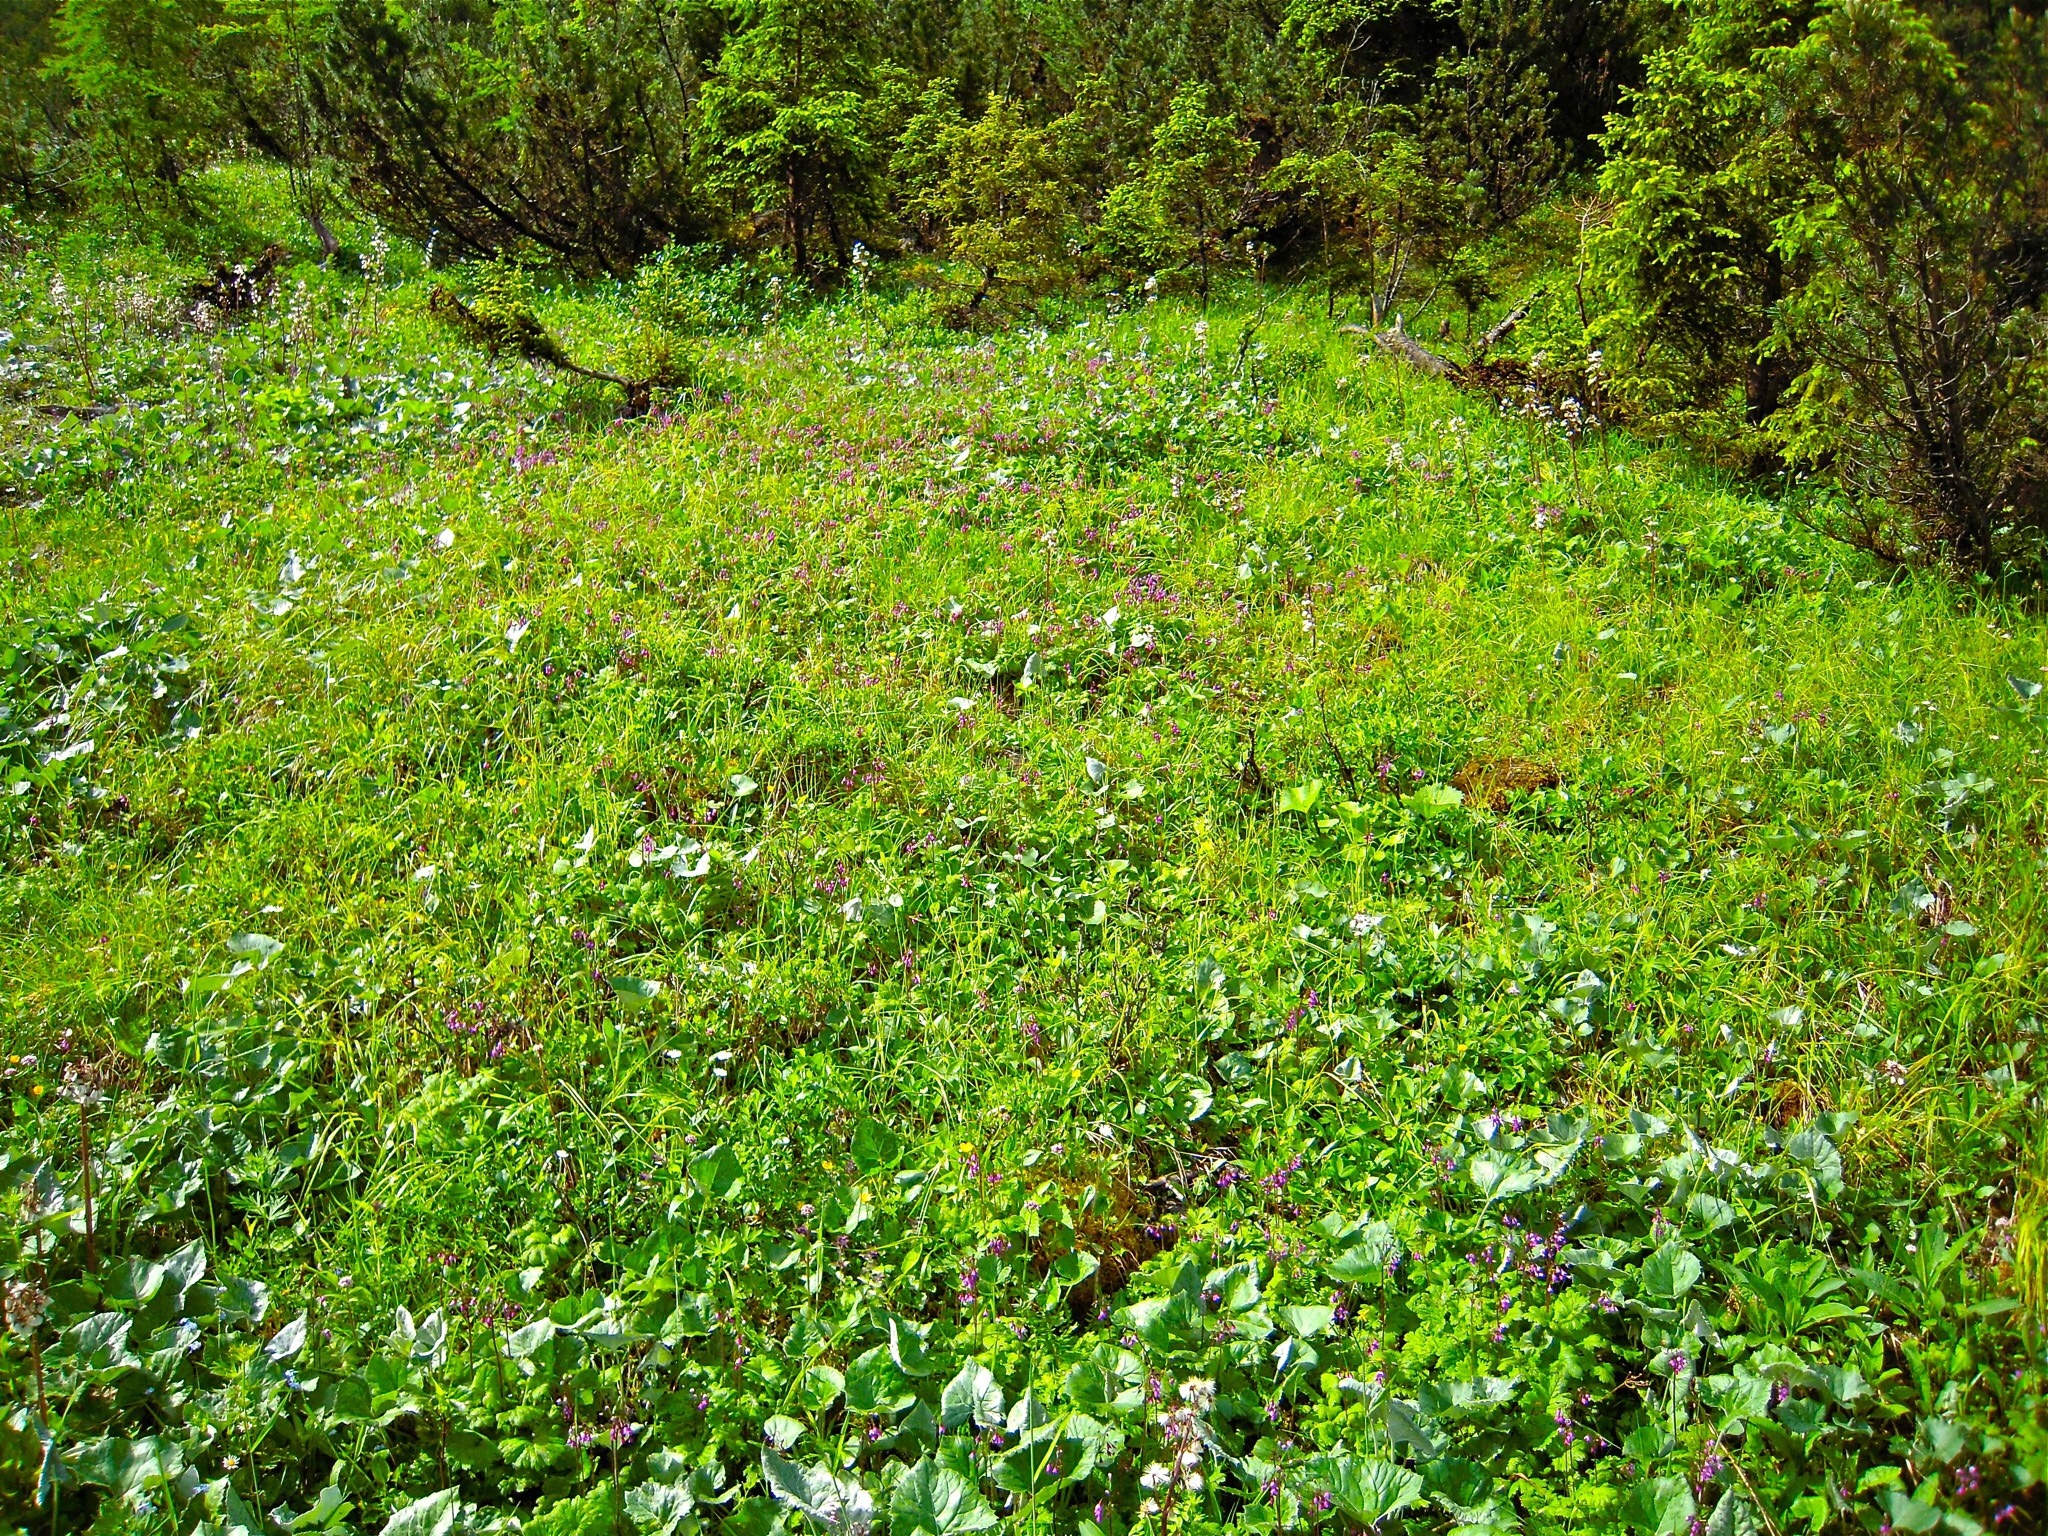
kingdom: Plantae
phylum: Tracheophyta
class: Magnoliopsida
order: Ericales
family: Primulaceae
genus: Primula
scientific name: Primula matthioli
